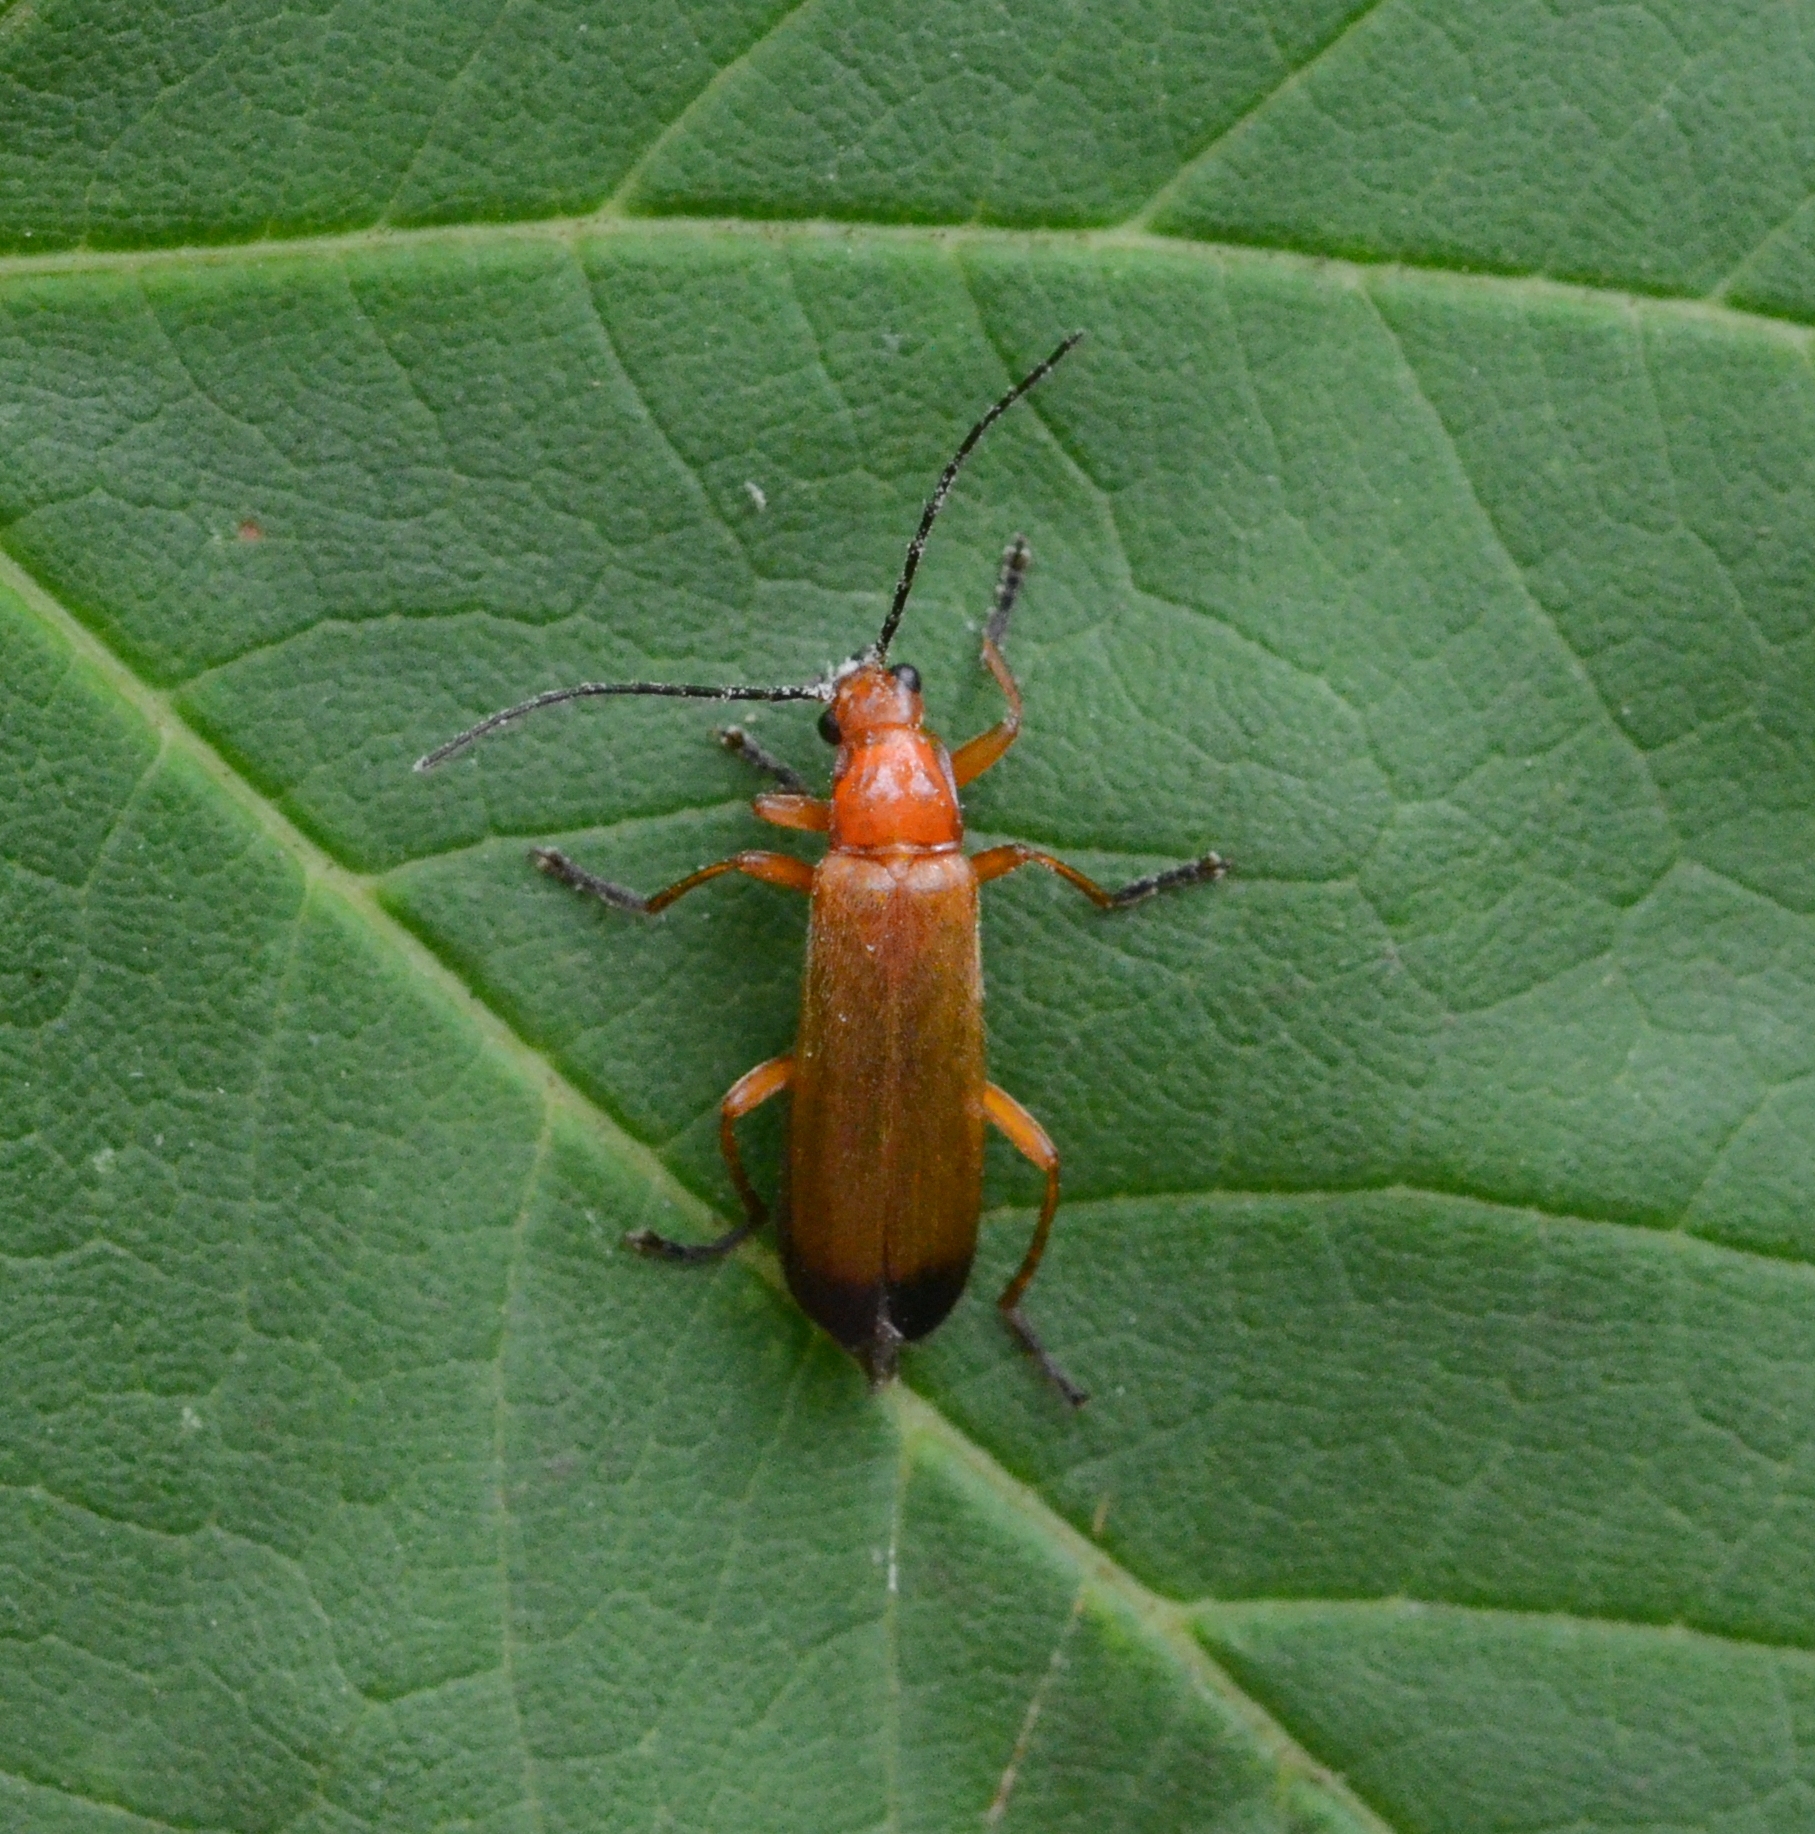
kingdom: Animalia
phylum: Arthropoda
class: Insecta
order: Coleoptera
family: Cantharidae
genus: Rhagonycha
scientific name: Rhagonycha fulva
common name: Common red soldier beetle
